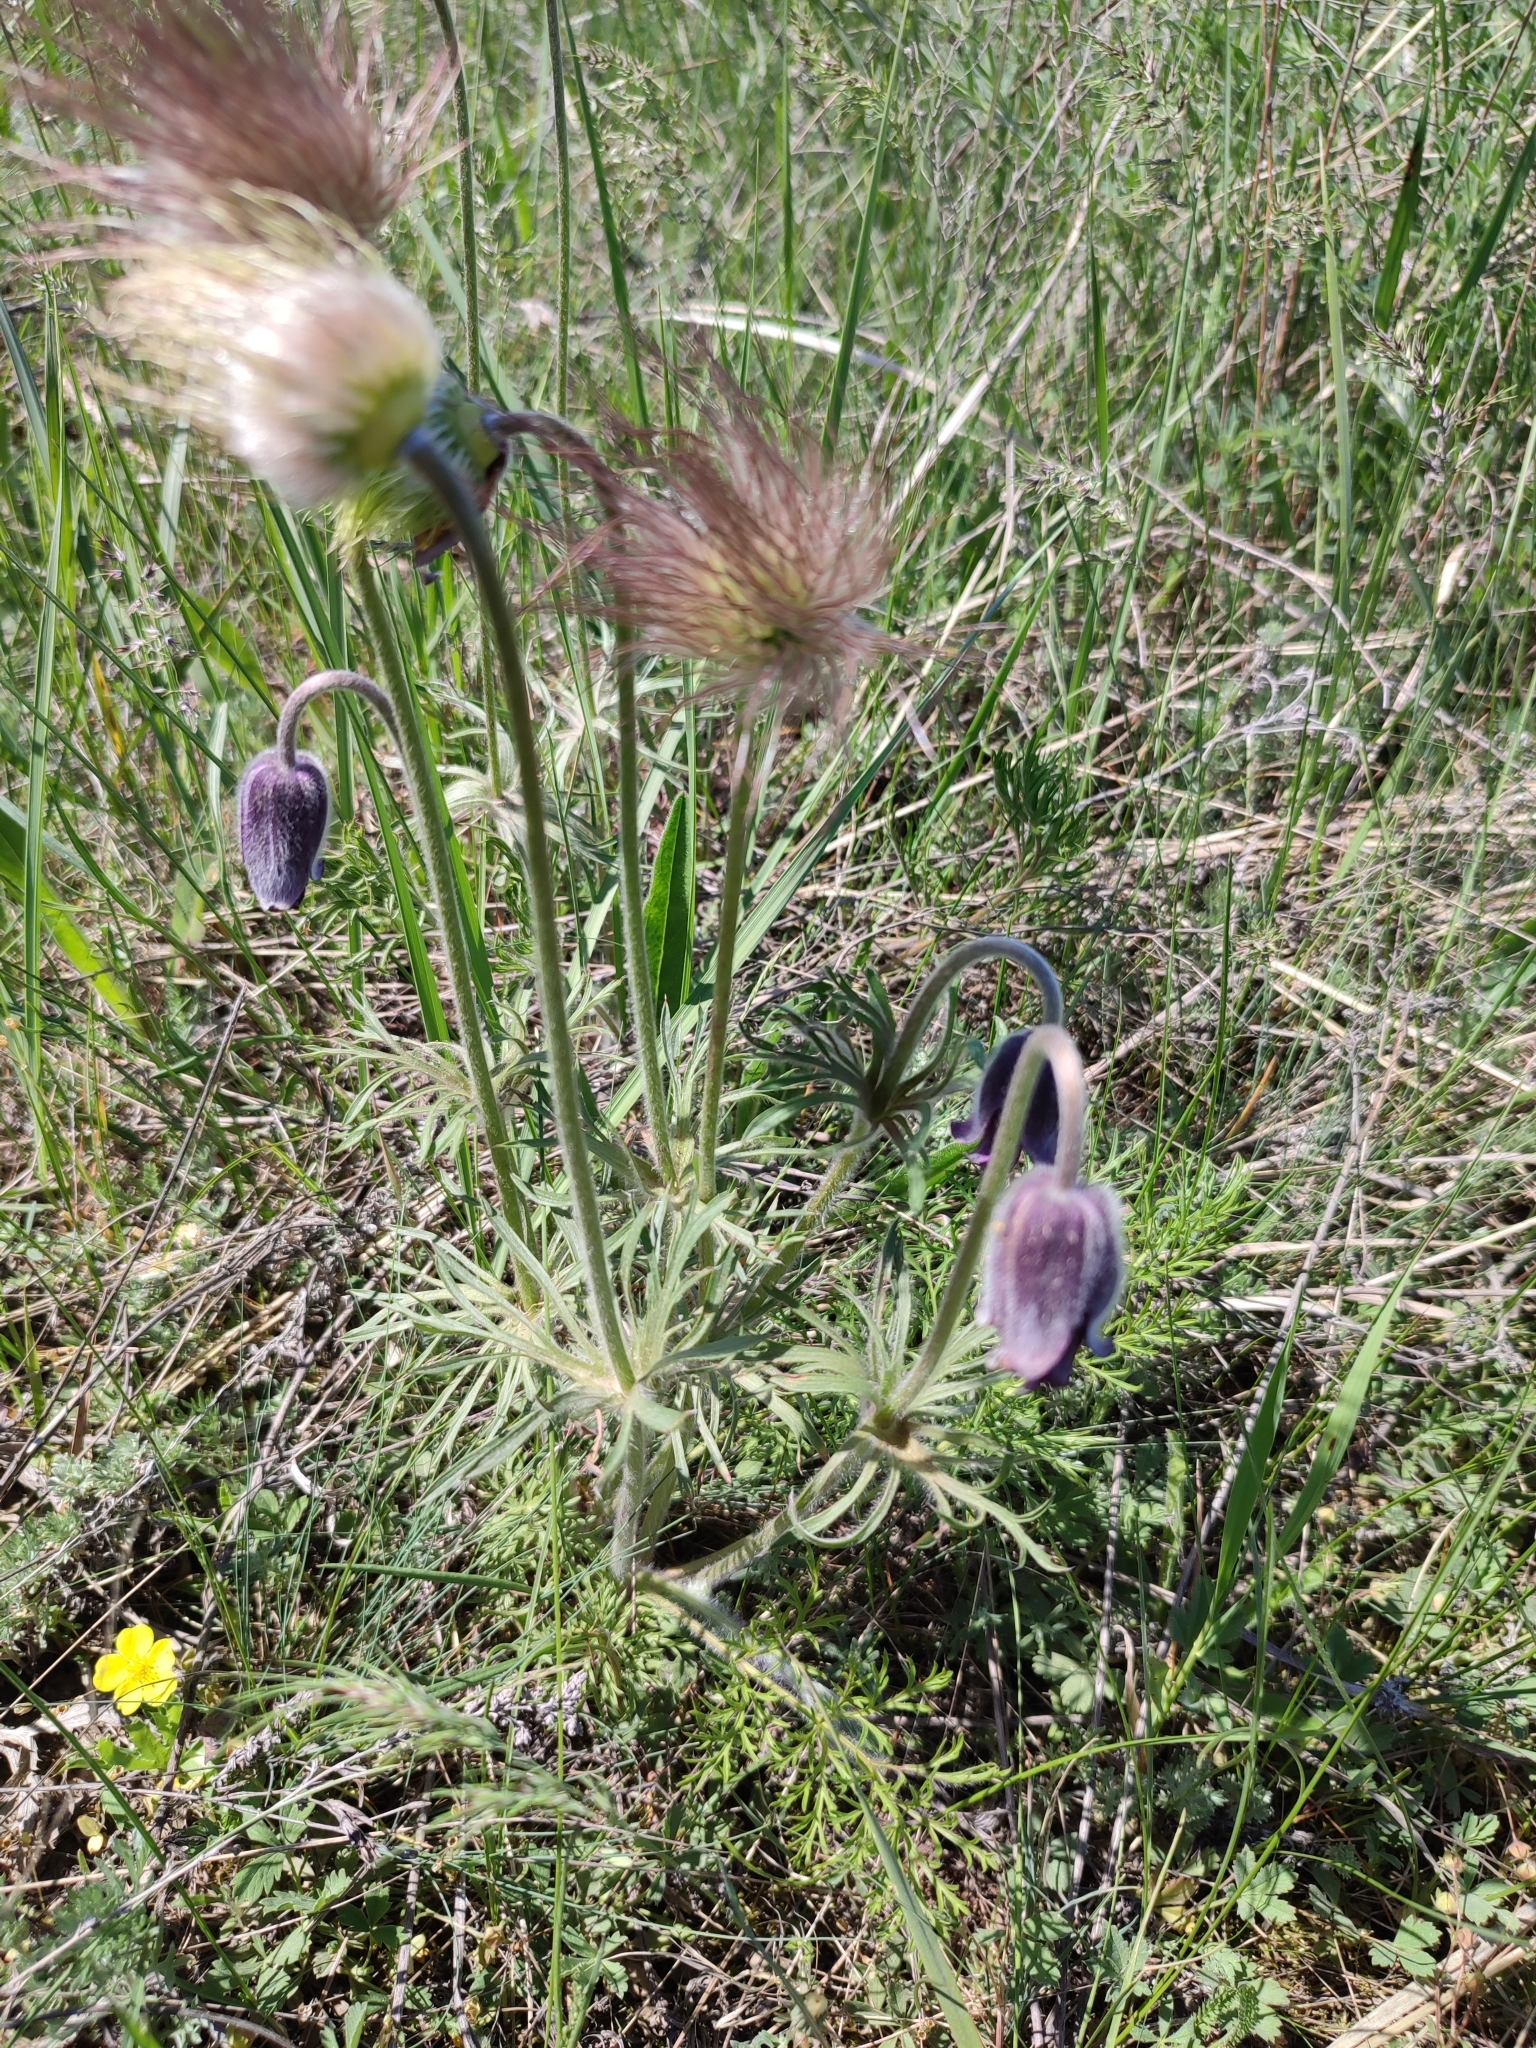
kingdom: Plantae
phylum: Tracheophyta
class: Magnoliopsida
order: Ranunculales
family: Ranunculaceae
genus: Pulsatilla
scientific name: Pulsatilla pratensis
